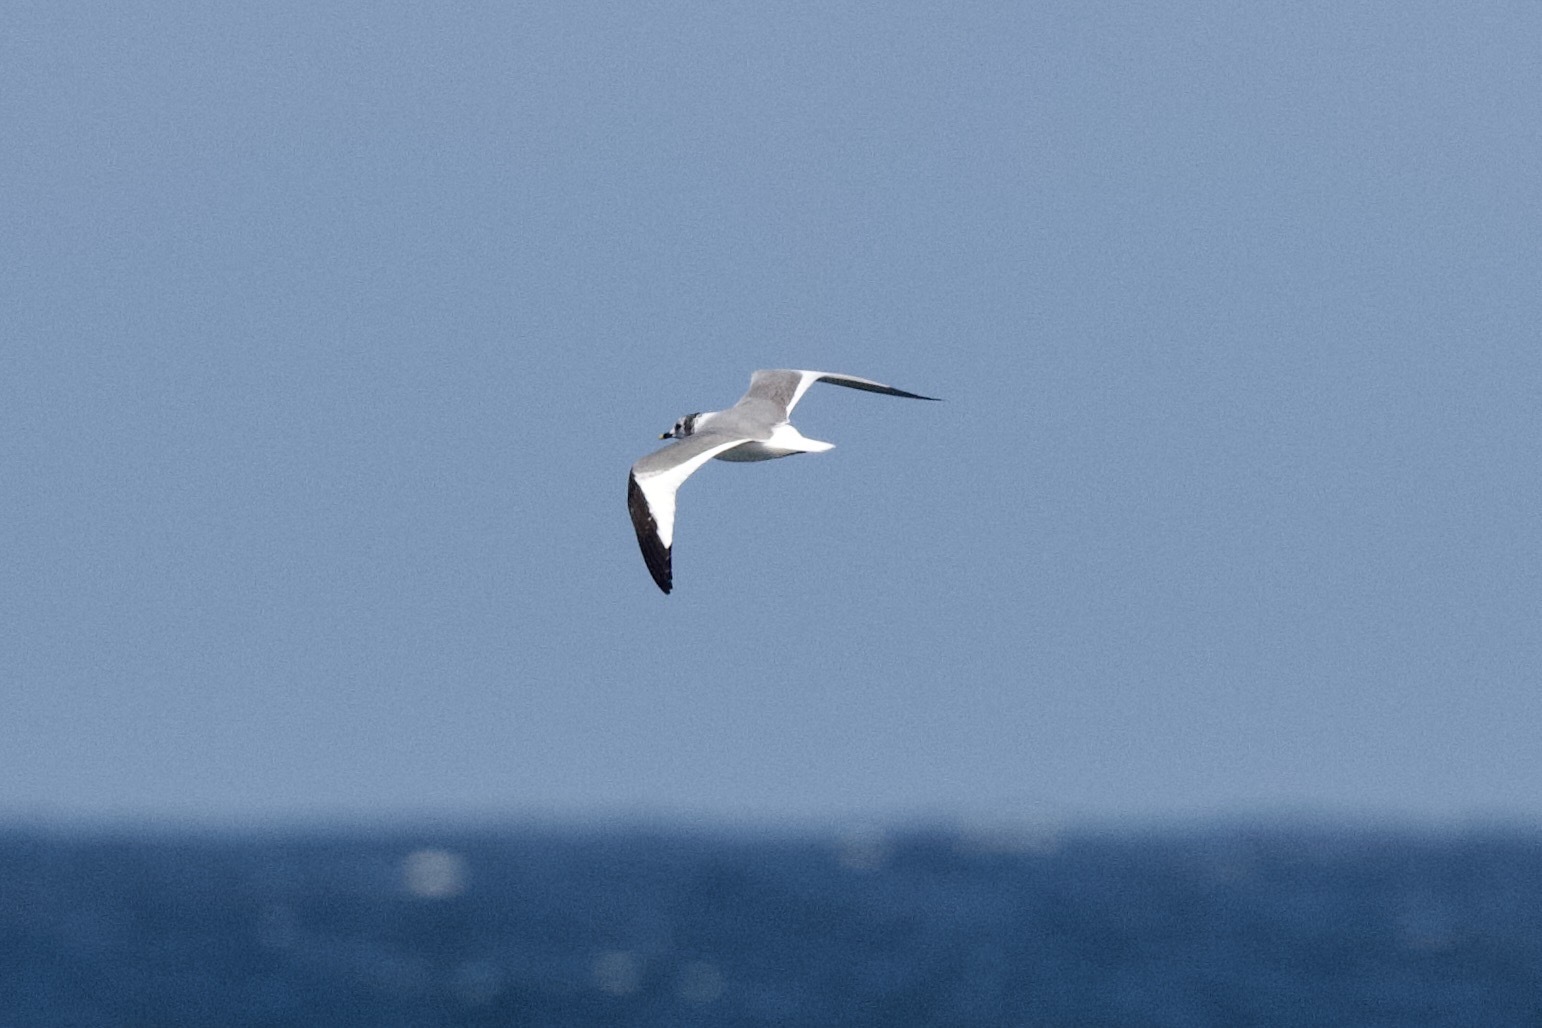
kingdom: Animalia
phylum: Chordata
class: Aves
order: Charadriiformes
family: Laridae
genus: Xema
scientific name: Xema sabini
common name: Sabine's gull
